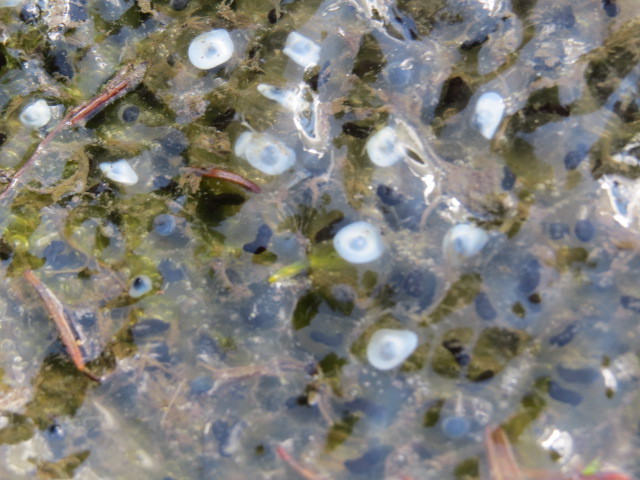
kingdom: Animalia
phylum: Chordata
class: Amphibia
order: Anura
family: Ranidae
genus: Rana
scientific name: Rana temporaria
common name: Common frog
